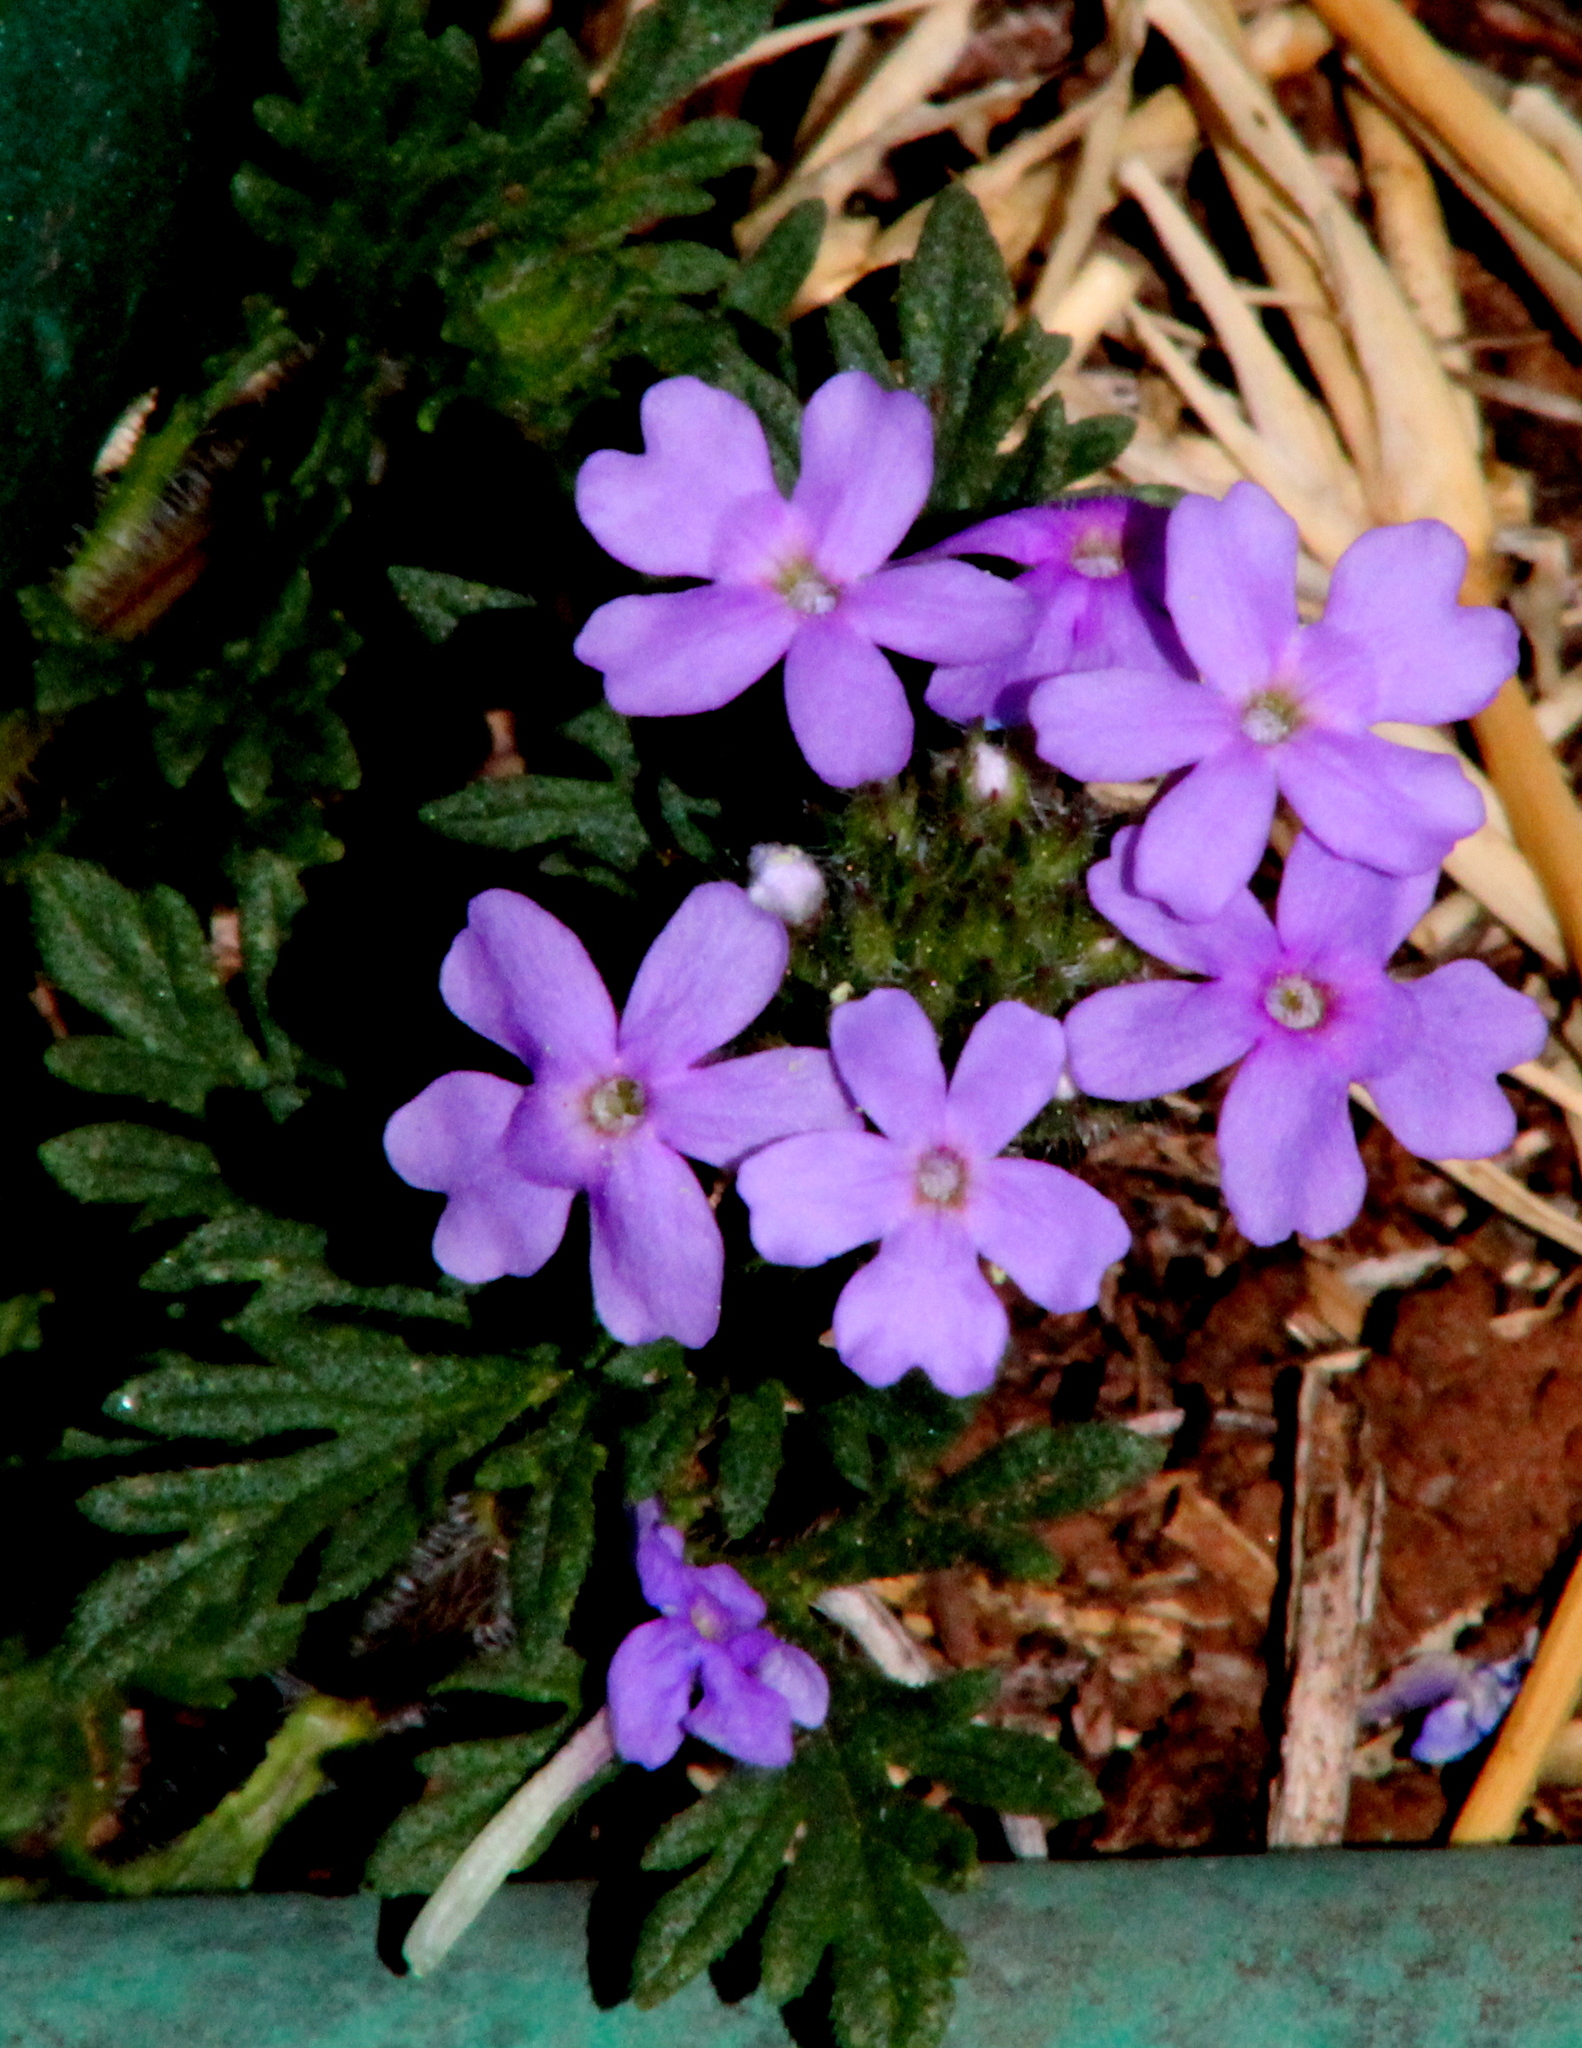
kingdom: Plantae
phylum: Tracheophyta
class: Magnoliopsida
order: Lamiales
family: Verbenaceae
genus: Verbena
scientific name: Verbena pumila
